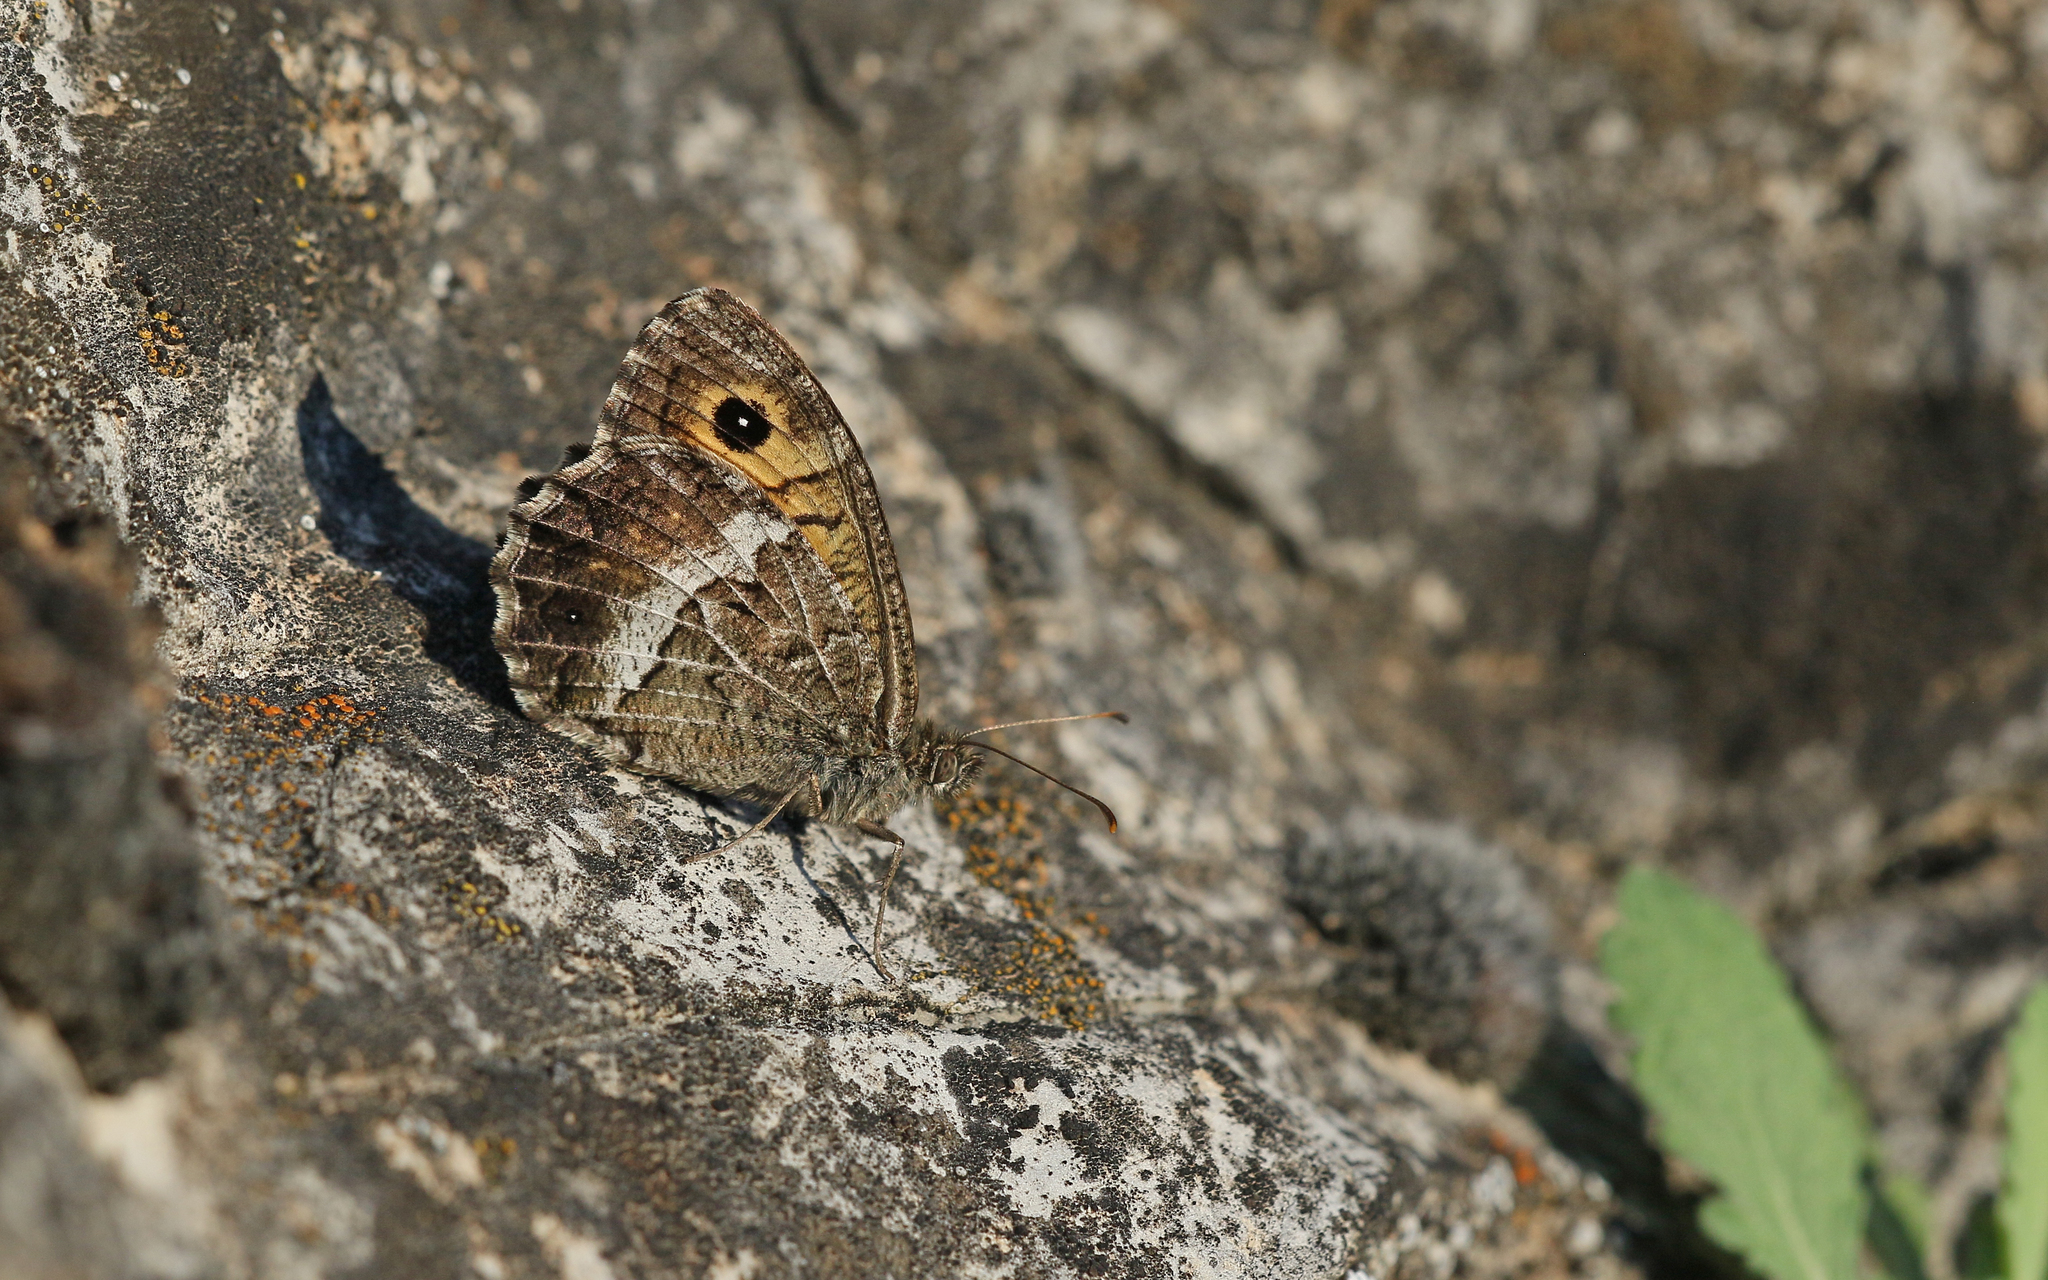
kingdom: Animalia
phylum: Arthropoda
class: Insecta
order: Lepidoptera
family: Nymphalidae
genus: Arethusana
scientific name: Arethusana arethusa
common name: False grayling
